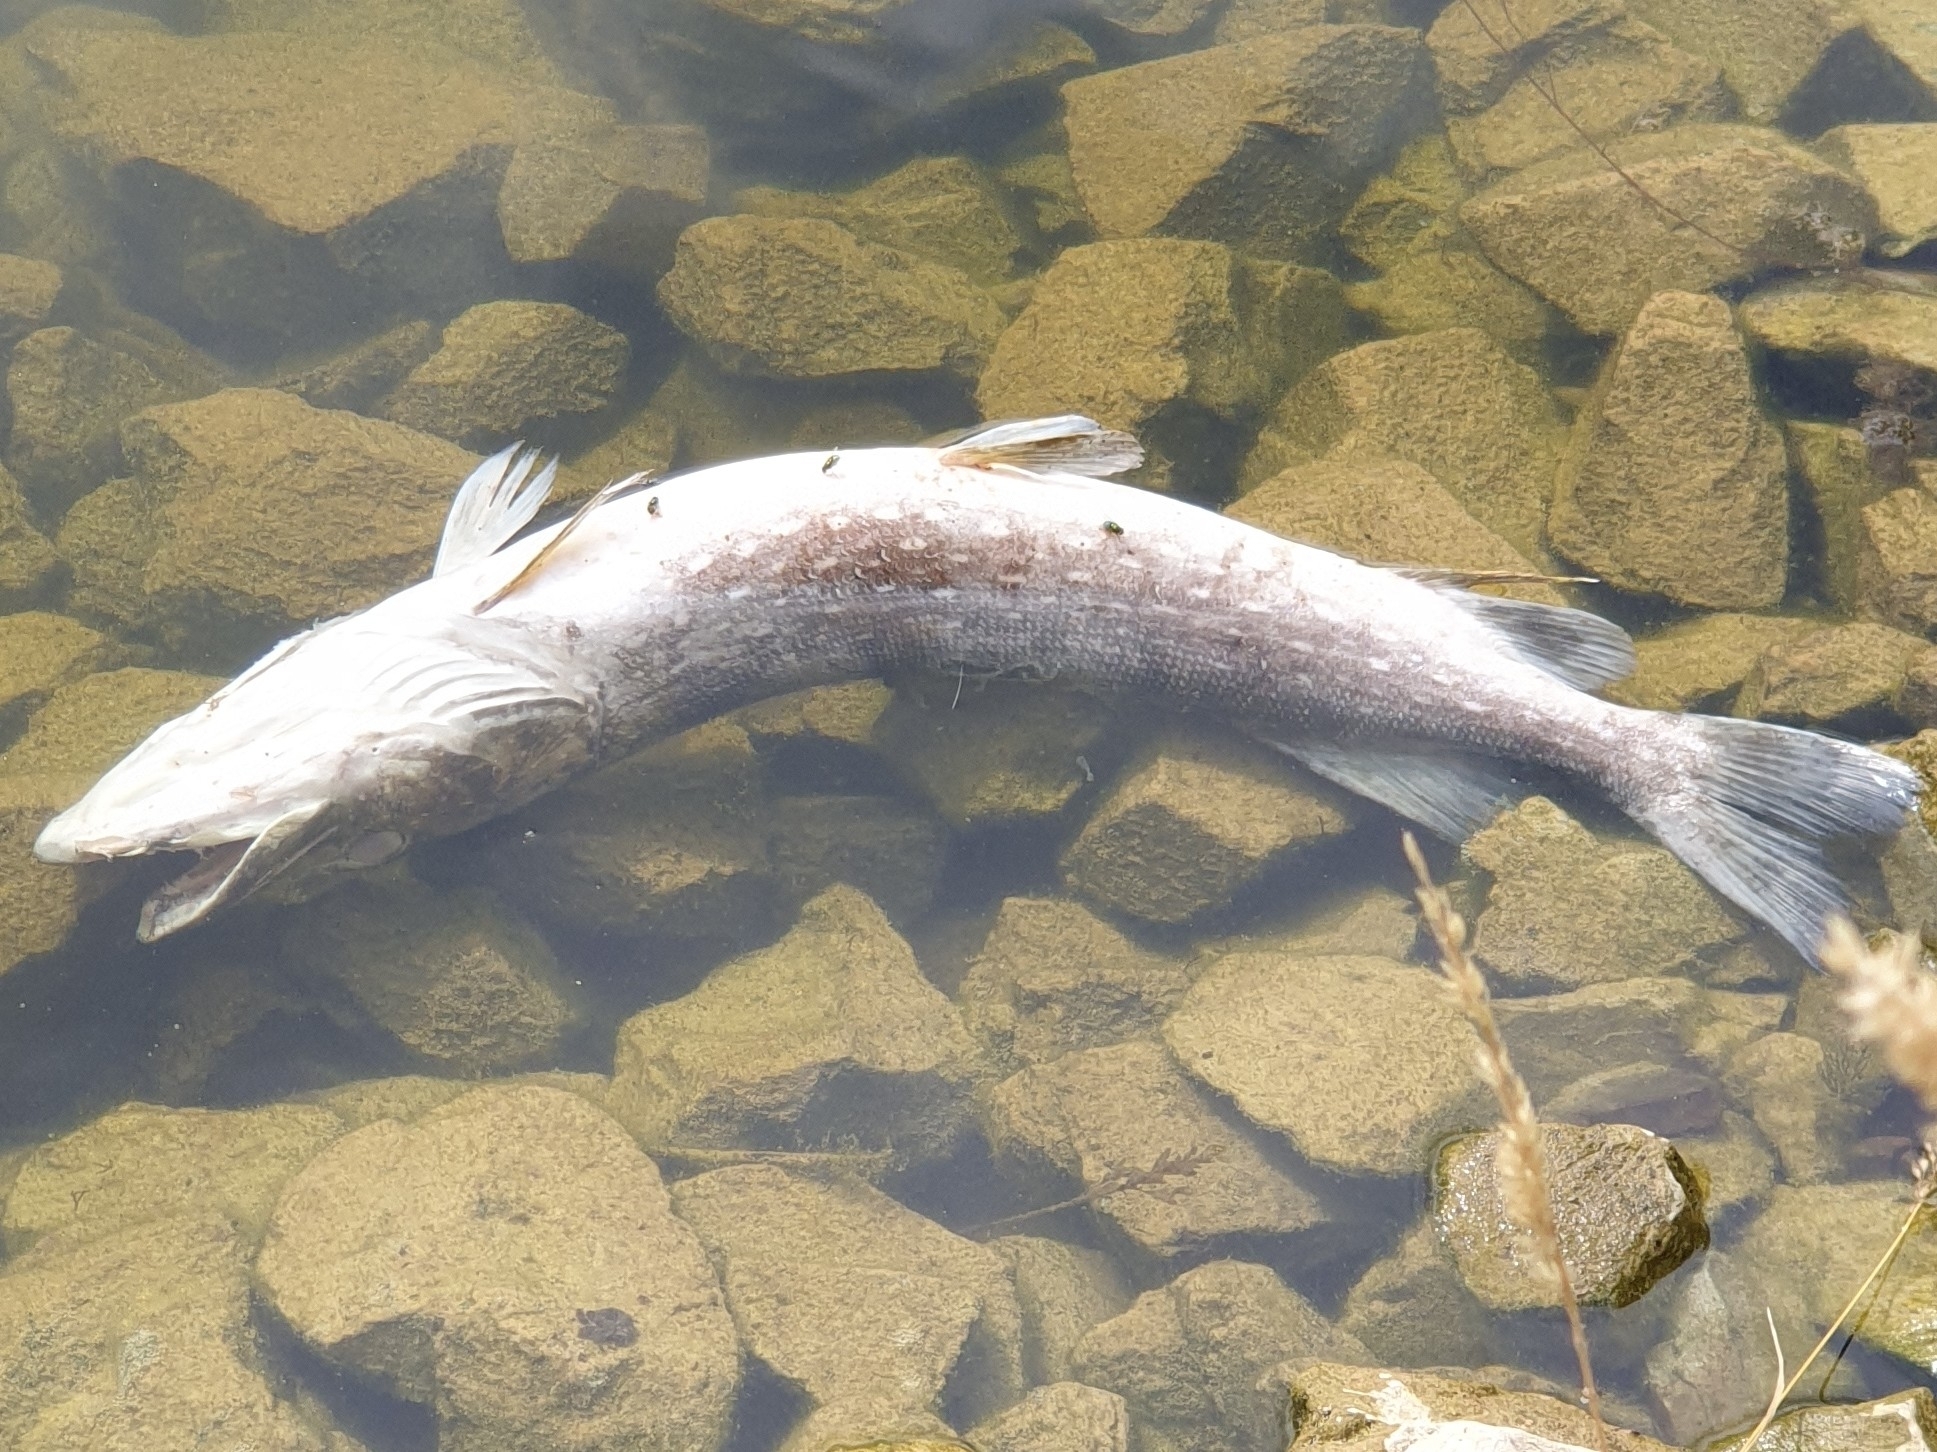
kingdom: Animalia
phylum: Chordata
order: Esociformes
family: Esocidae
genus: Esox
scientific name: Esox lucius
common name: Northern pike
